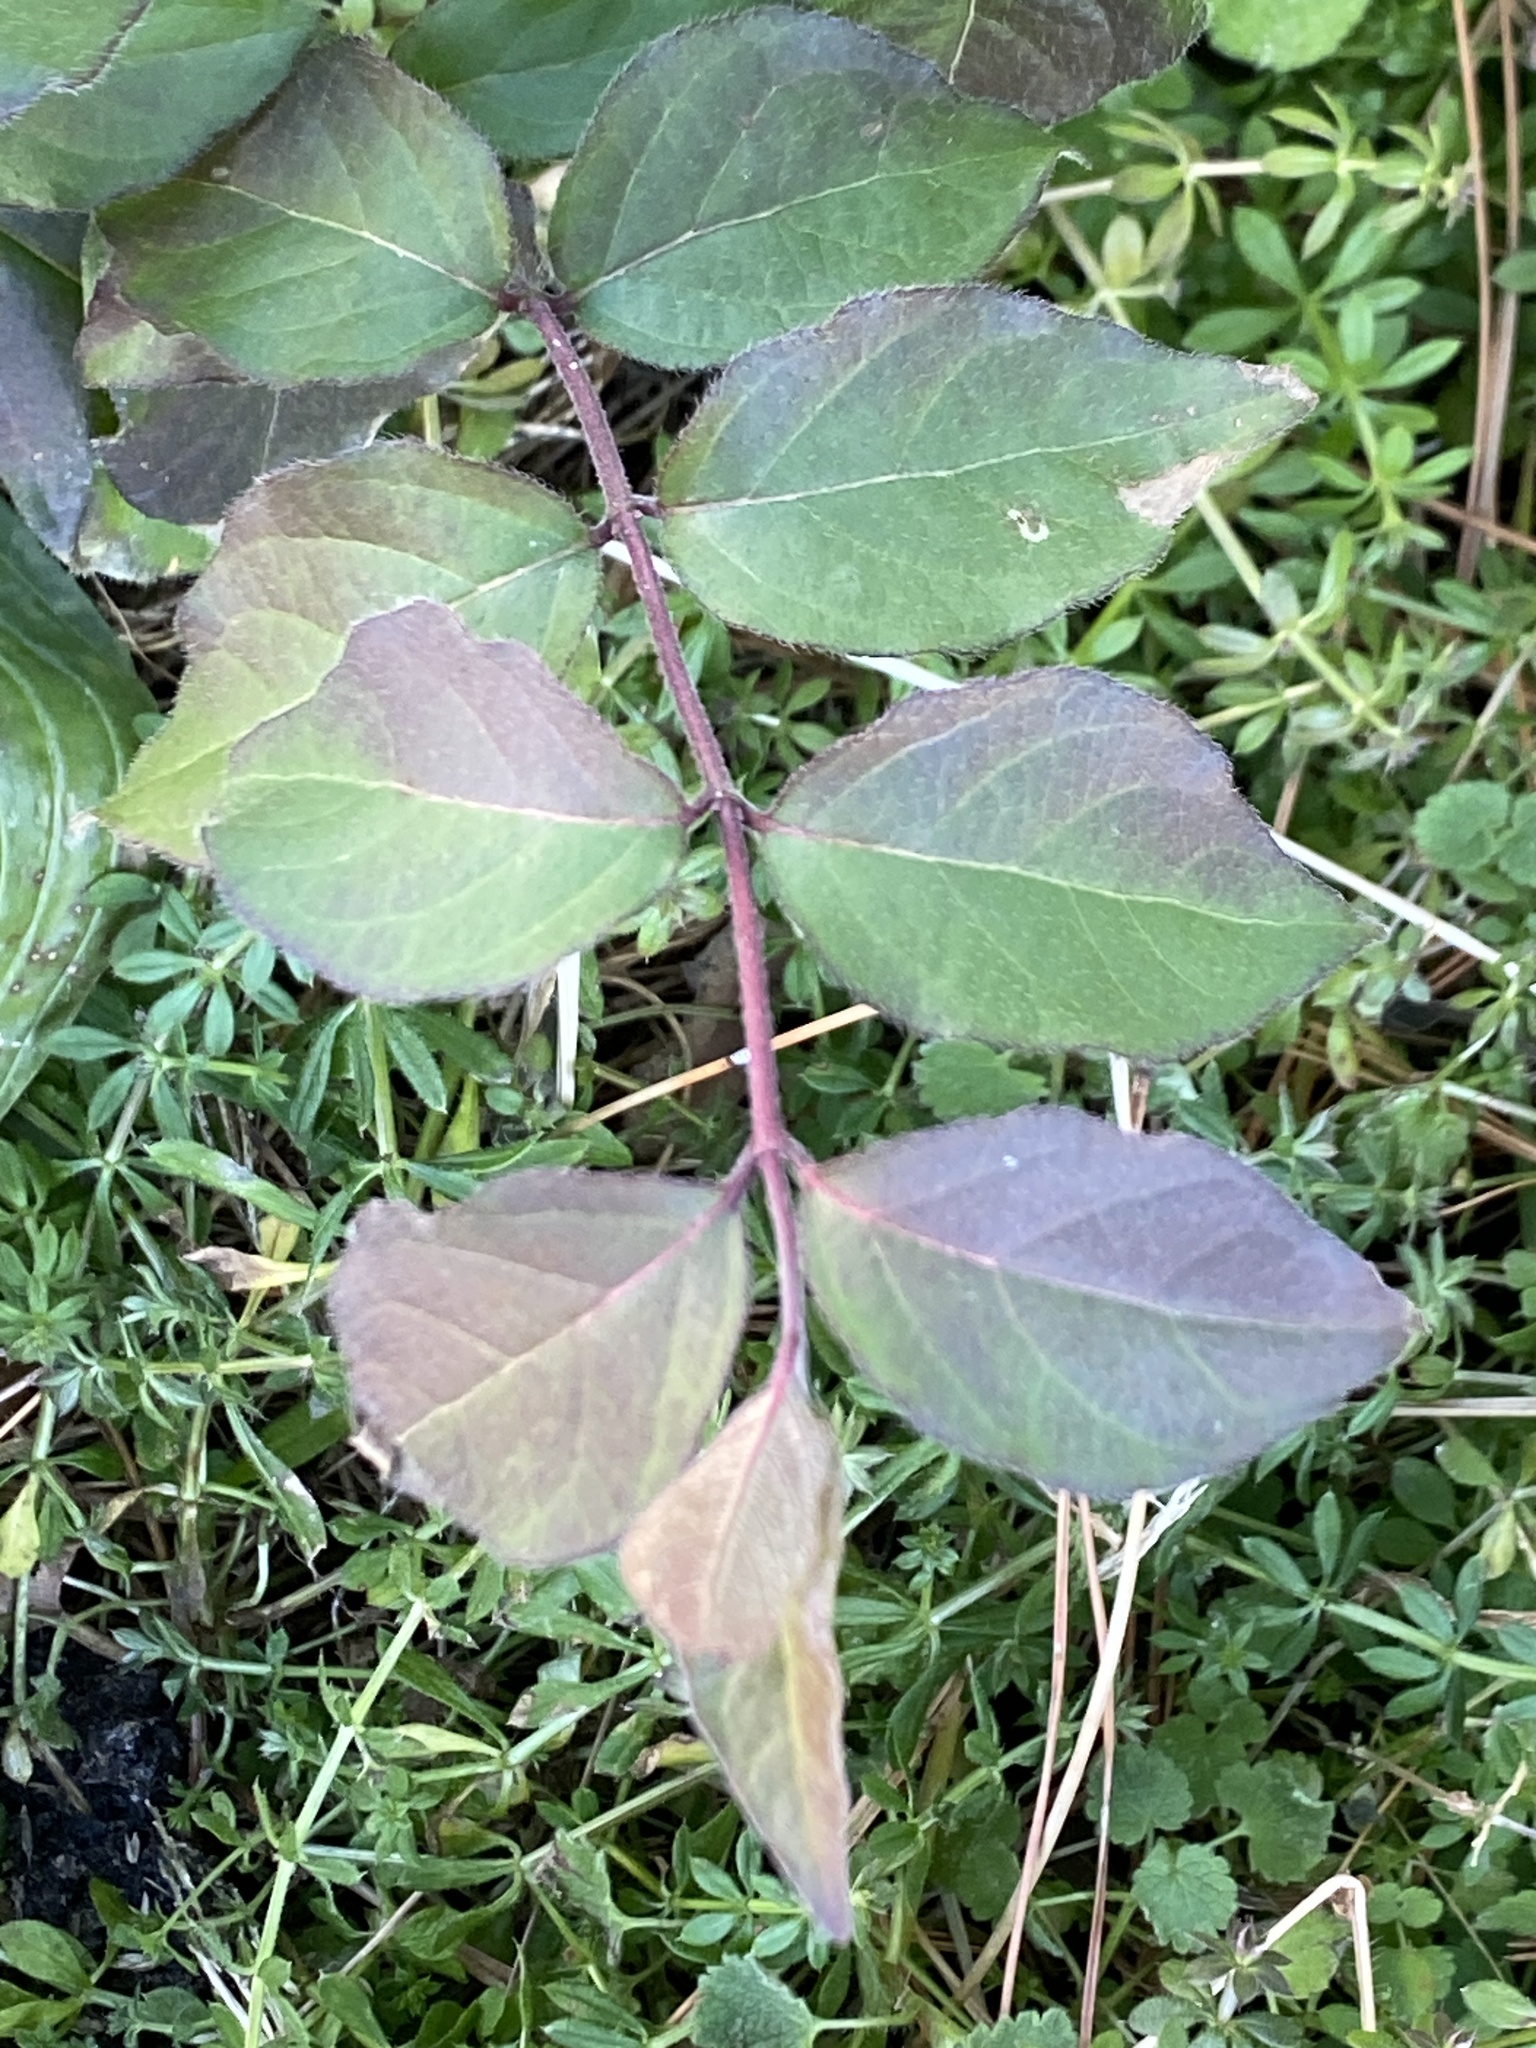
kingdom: Plantae
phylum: Tracheophyta
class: Magnoliopsida
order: Dipsacales
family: Caprifoliaceae
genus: Lonicera
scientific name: Lonicera maackii
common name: Amur honeysuckle
